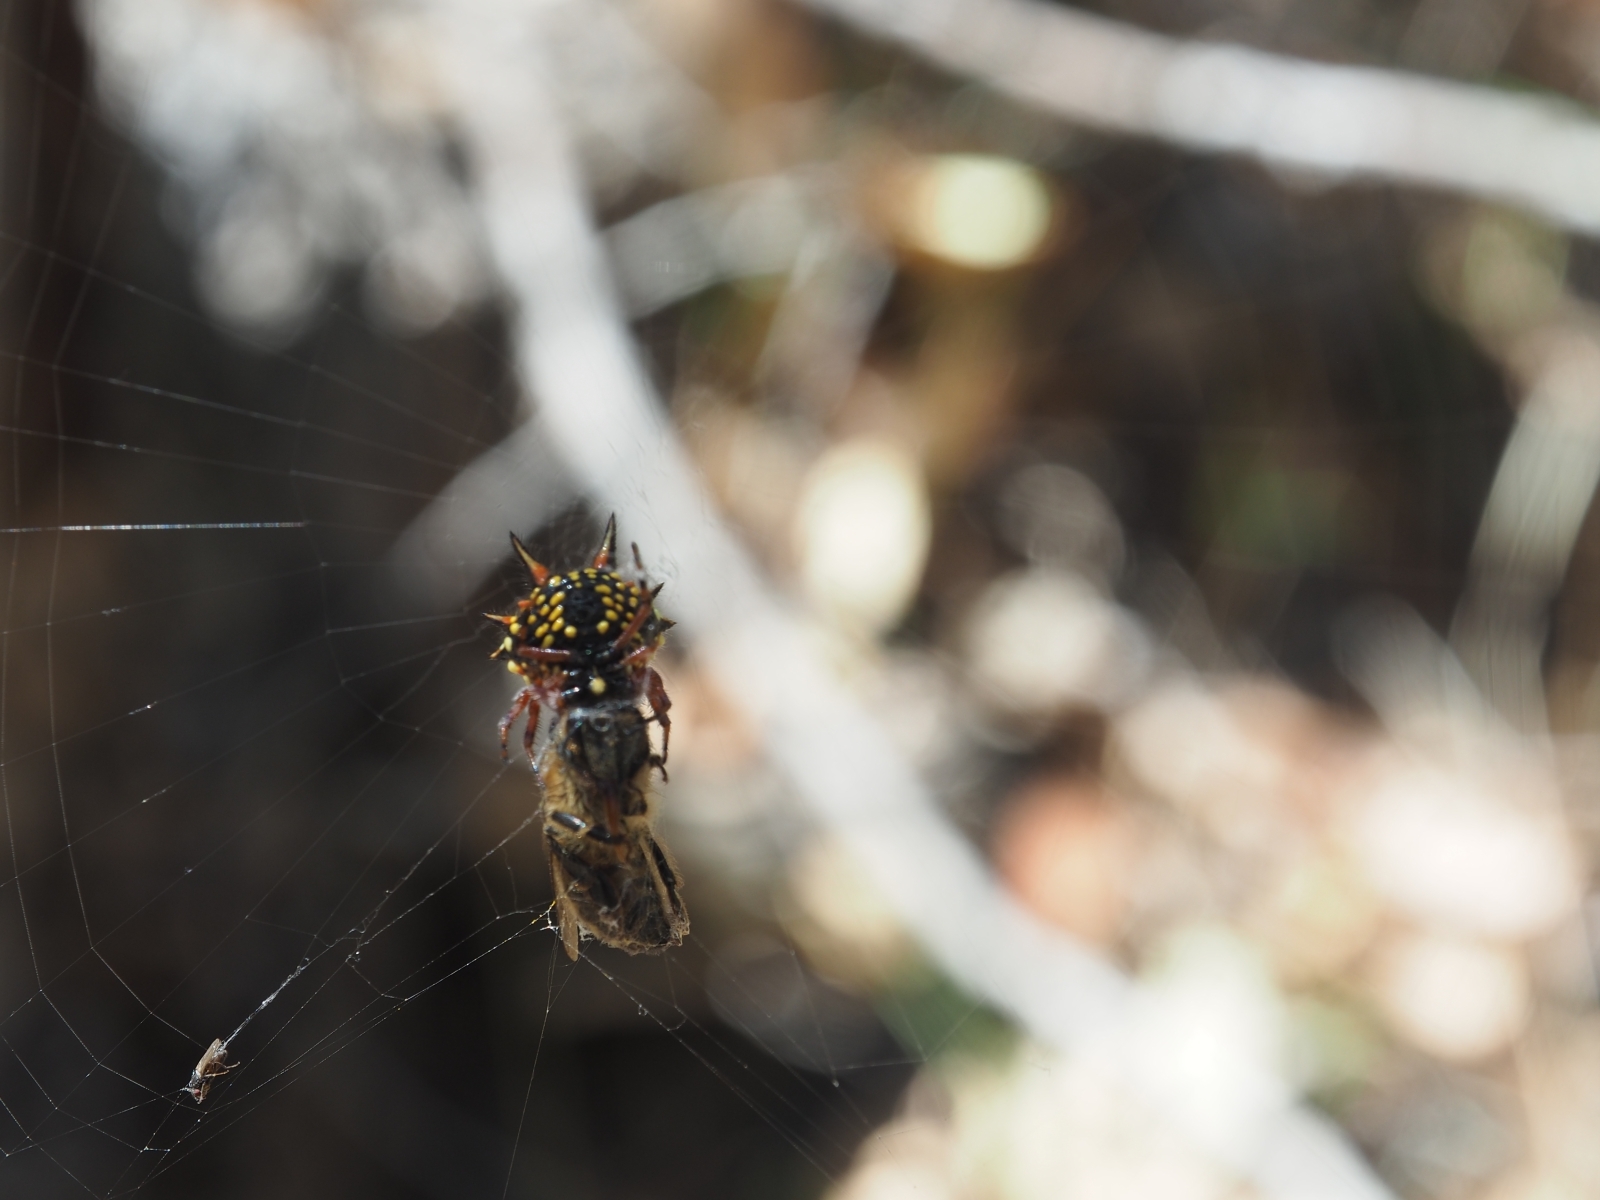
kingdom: Animalia
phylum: Arthropoda
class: Arachnida
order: Araneae
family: Araneidae
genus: Austracantha
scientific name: Austracantha minax
